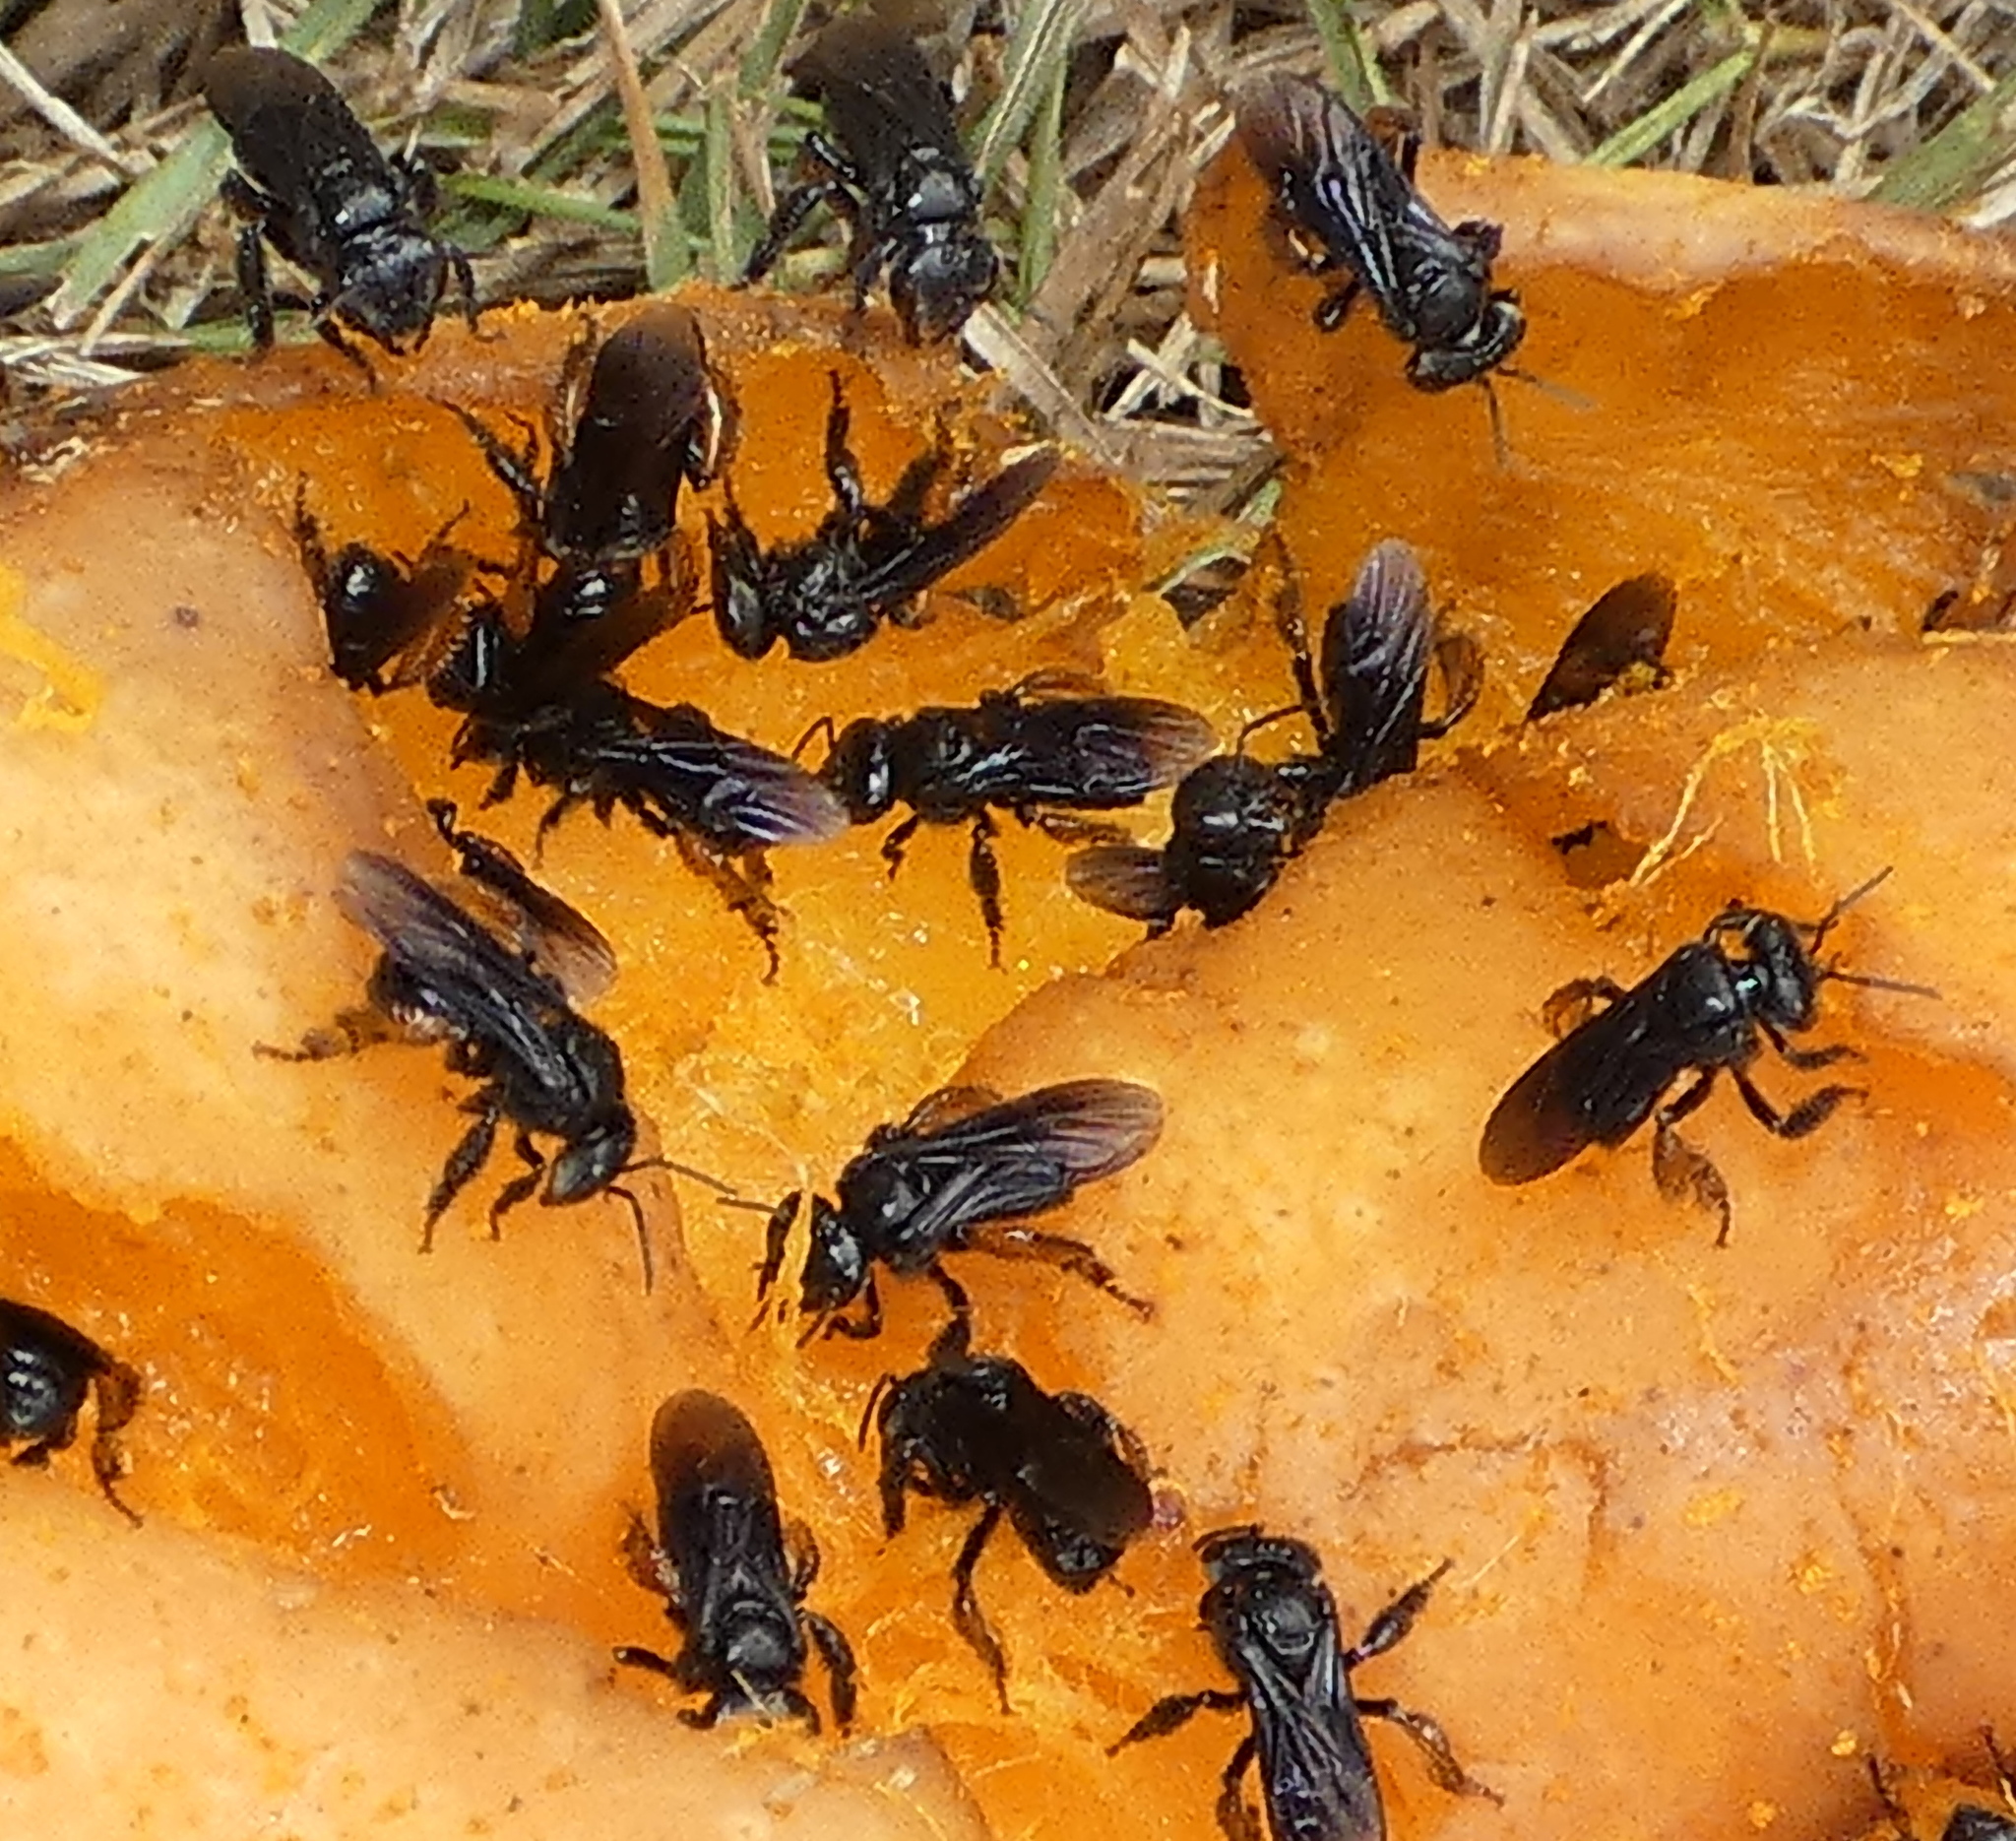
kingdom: Animalia
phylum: Arthropoda
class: Insecta
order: Hymenoptera
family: Apidae
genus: Trigona
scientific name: Trigona spinipes
